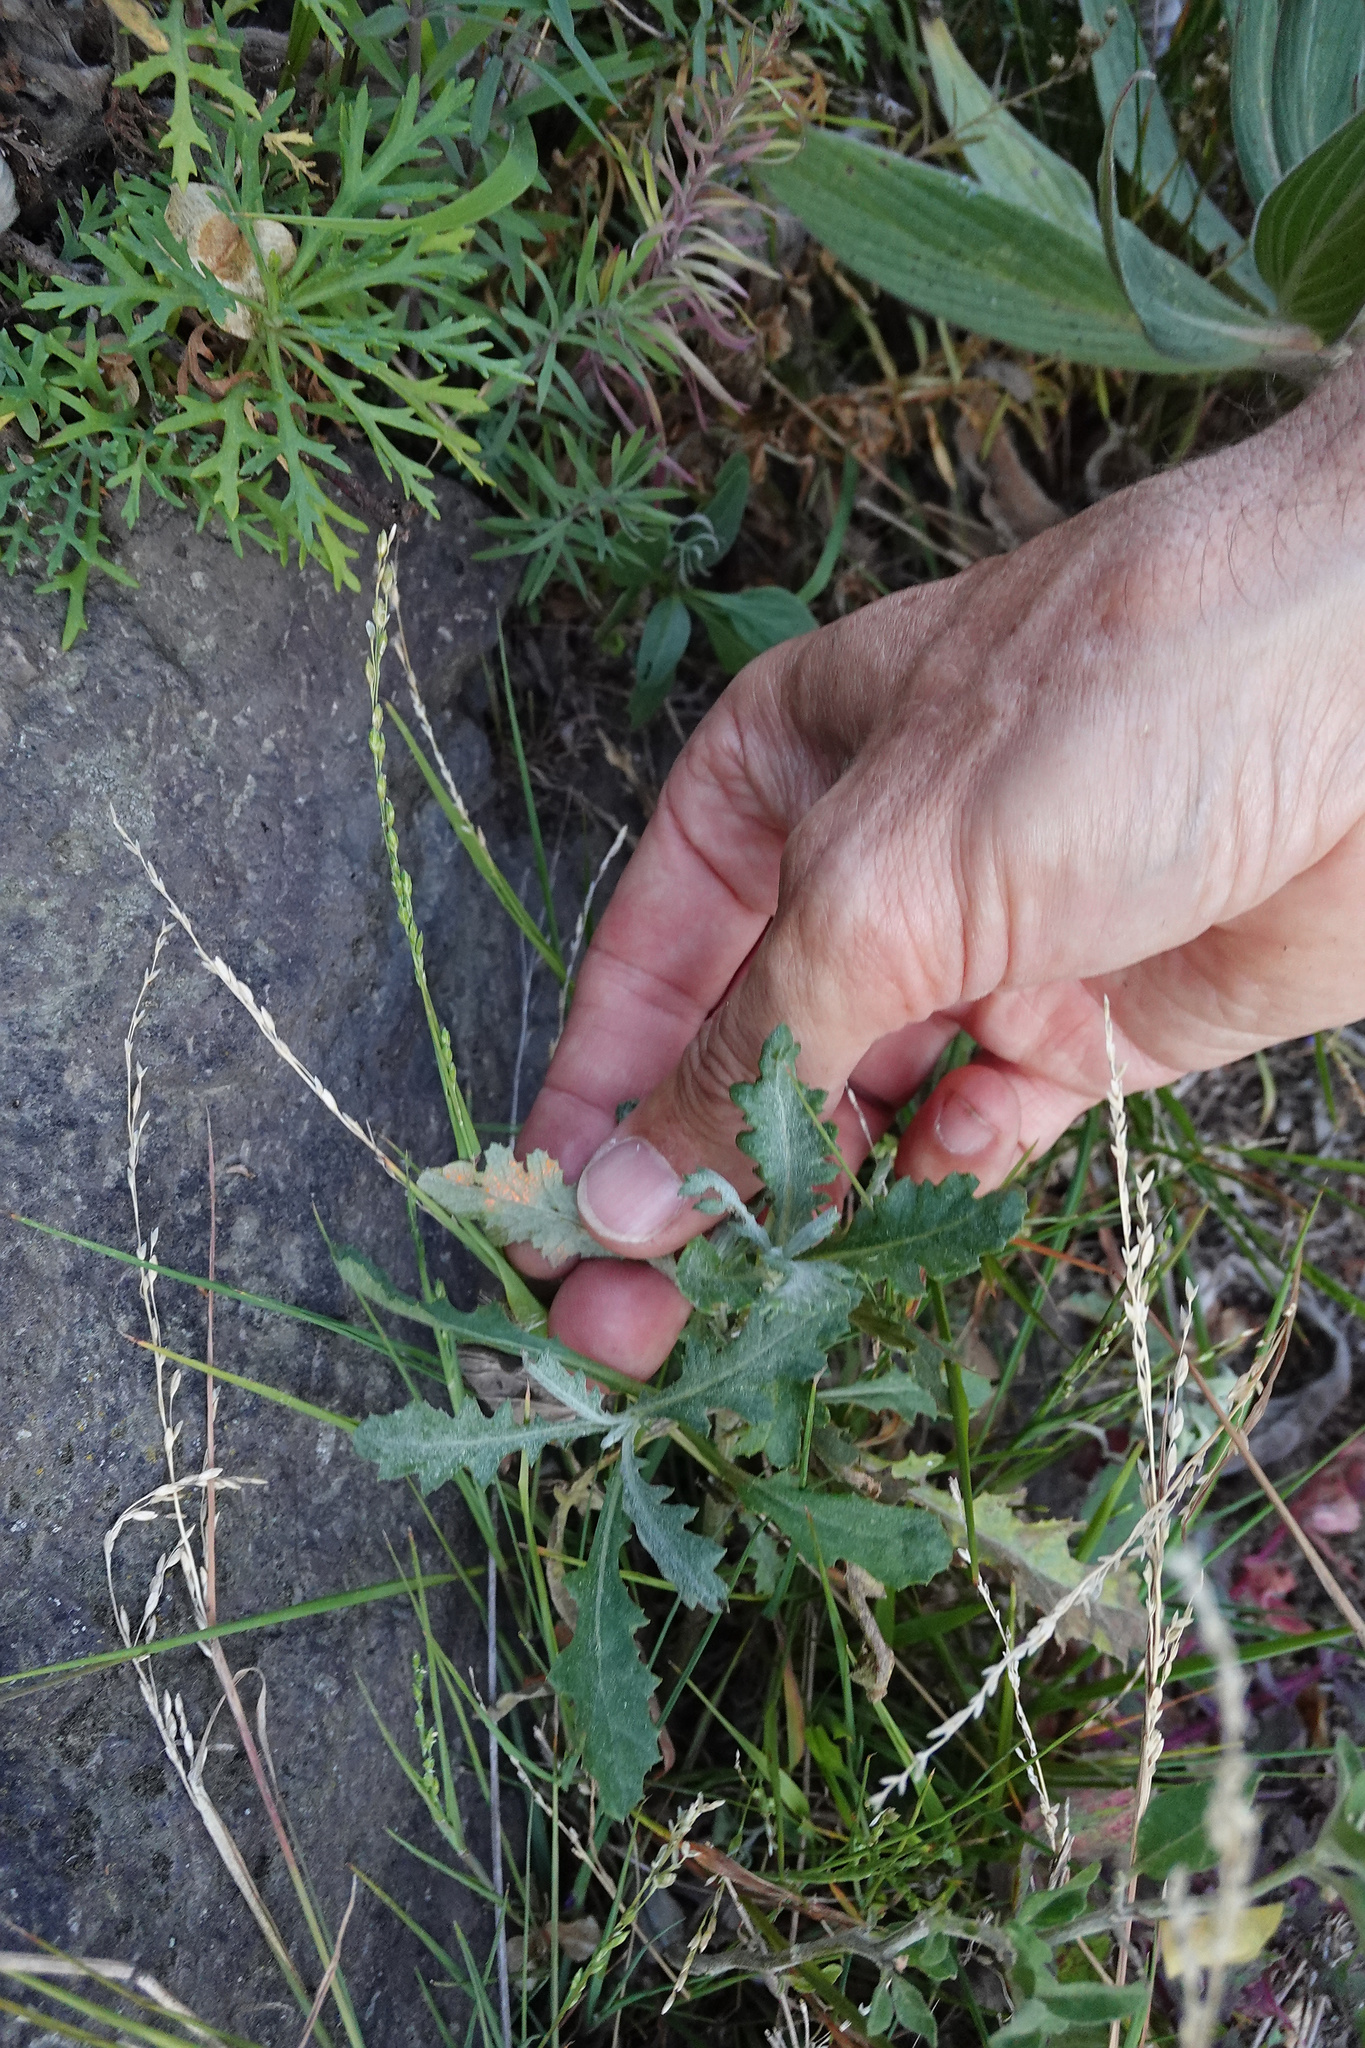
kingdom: Plantae
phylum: Tracheophyta
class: Magnoliopsida
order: Asterales
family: Asteraceae
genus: Senecio
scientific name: Senecio glomeratus
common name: Cutleaf burnweed
